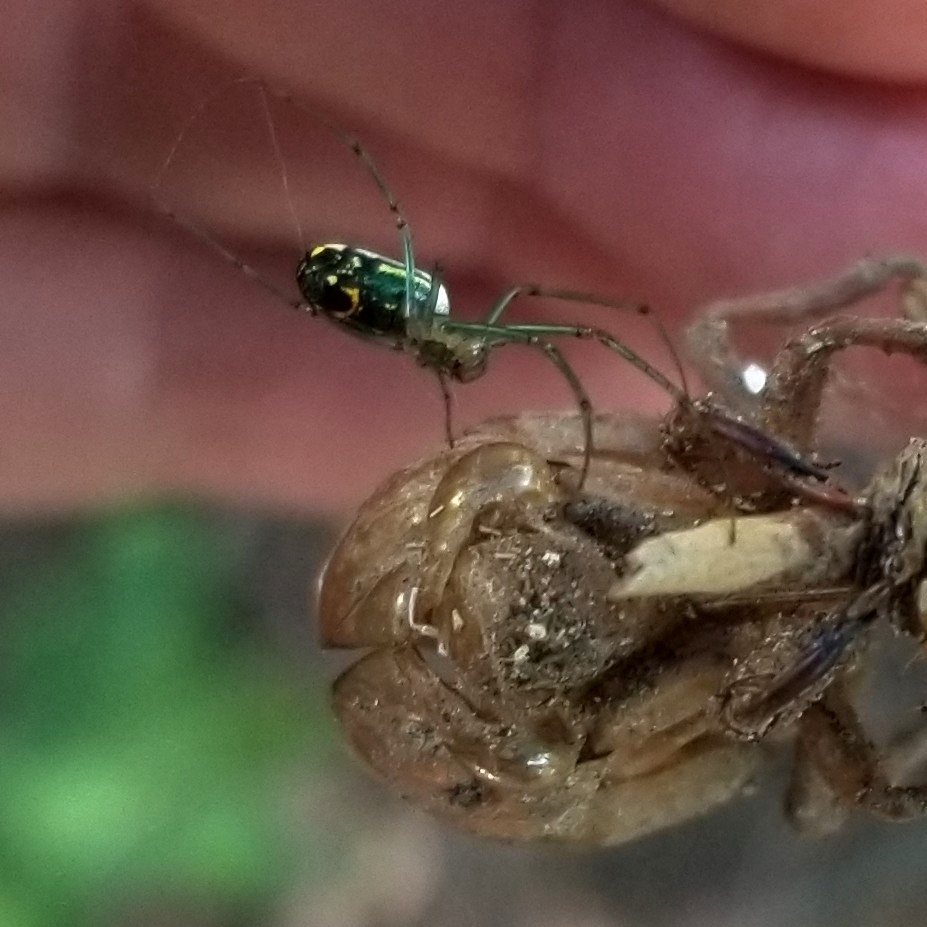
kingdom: Animalia
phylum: Arthropoda
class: Arachnida
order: Araneae
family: Tetragnathidae
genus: Leucauge
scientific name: Leucauge venusta
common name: Longjawed orb weavers
